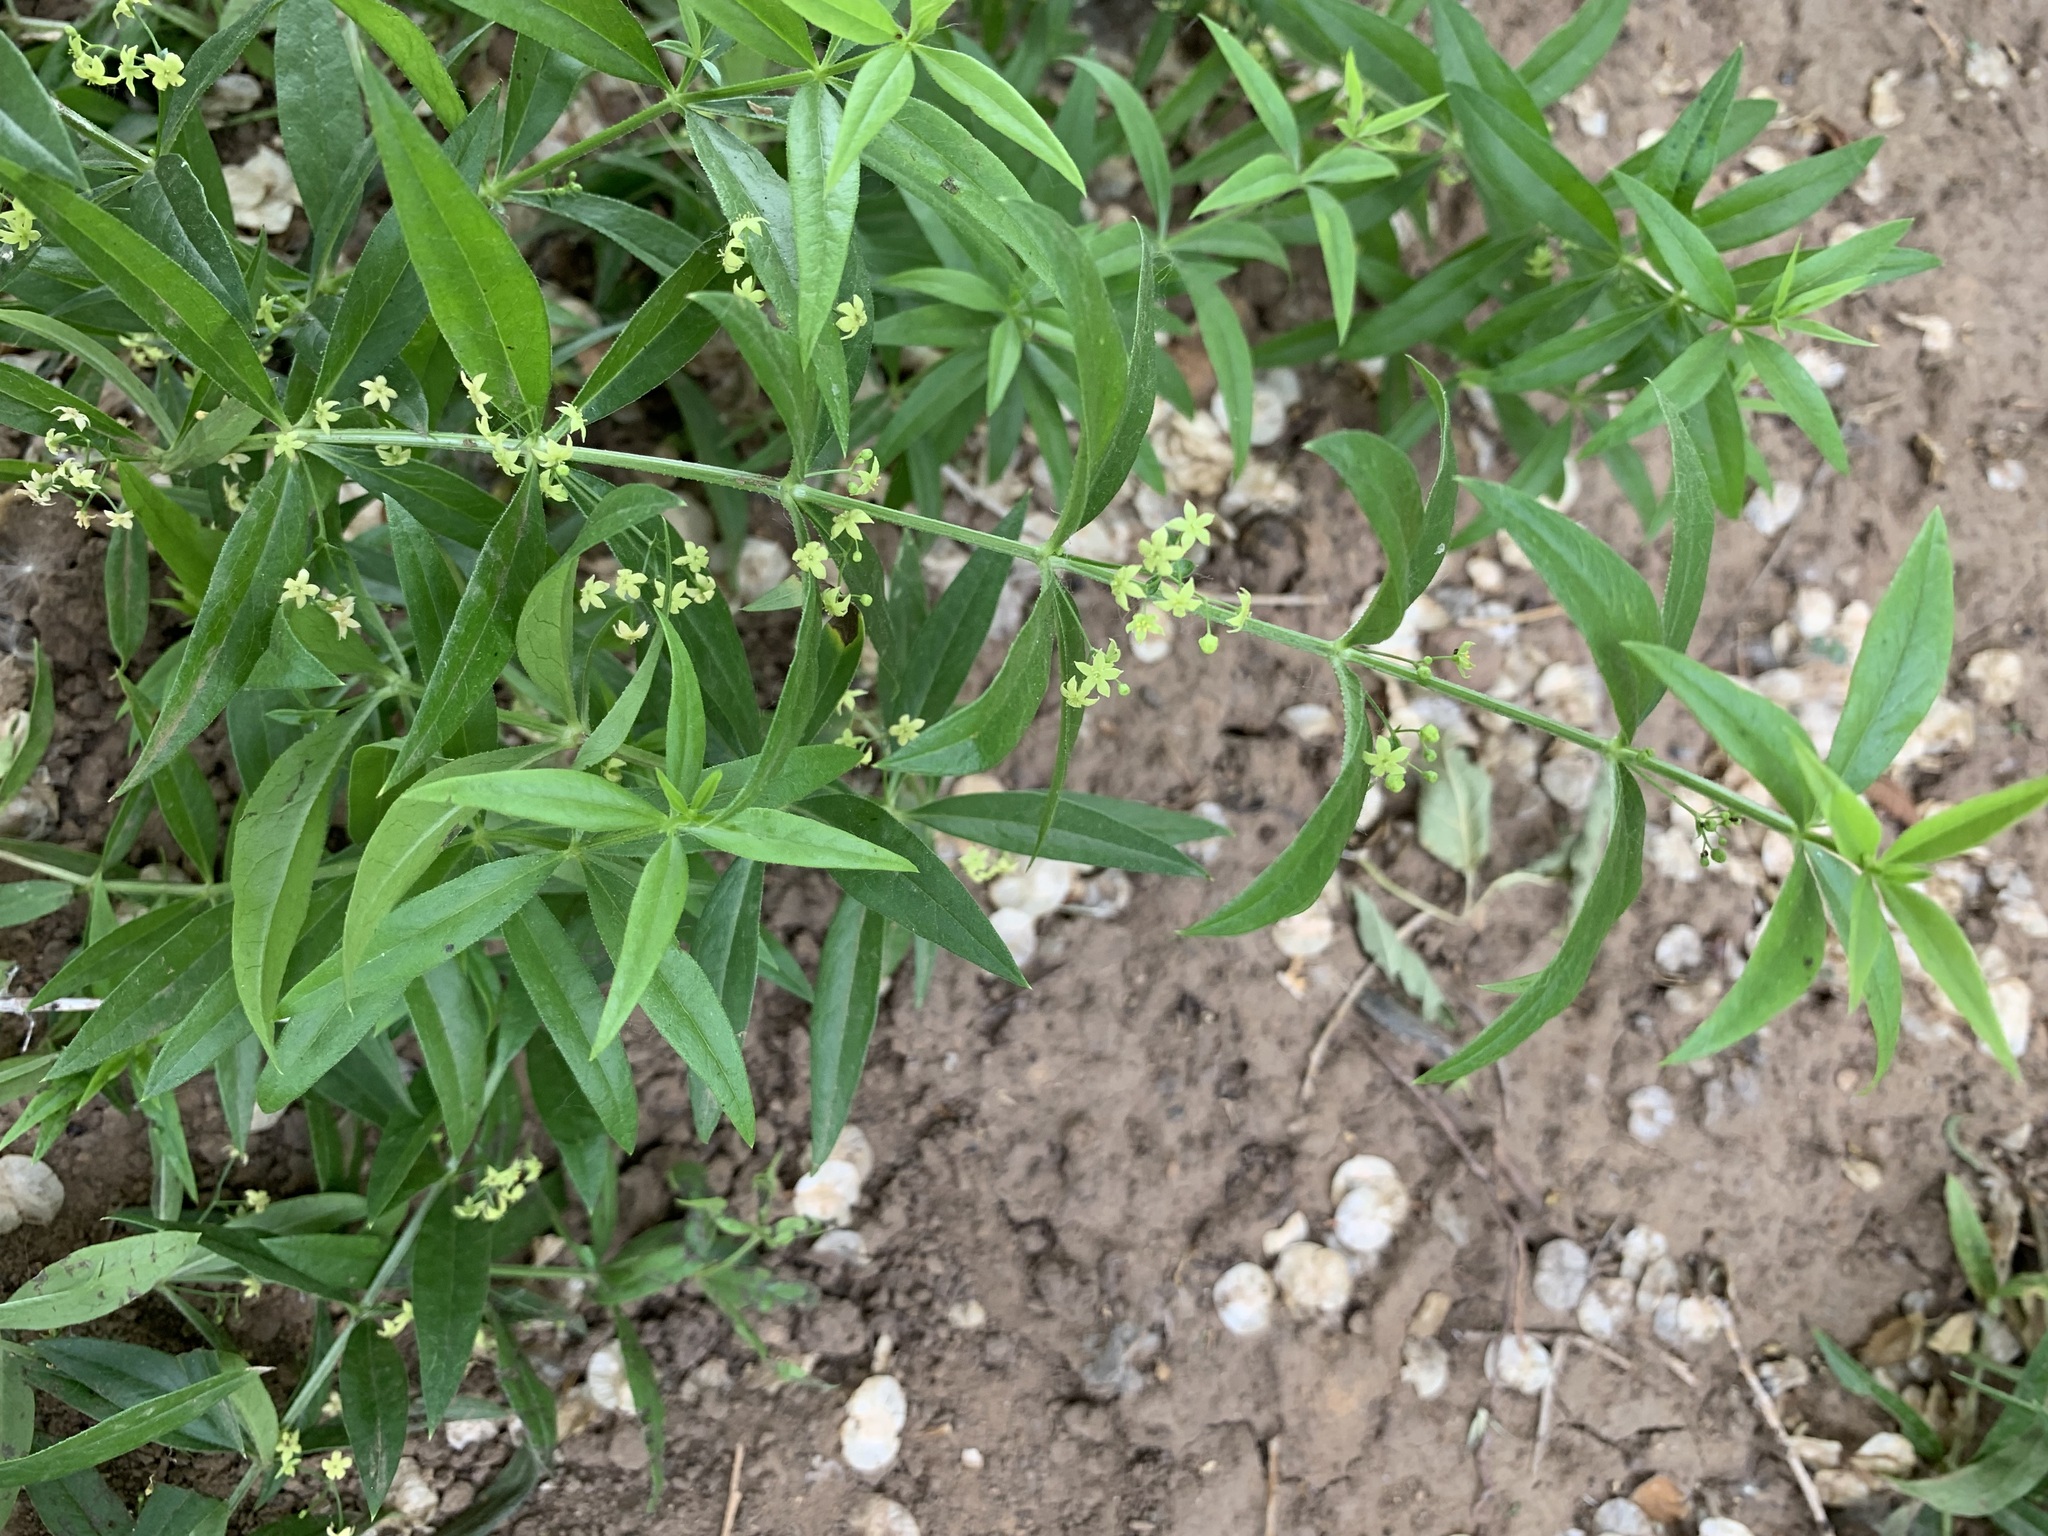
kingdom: Plantae
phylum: Tracheophyta
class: Magnoliopsida
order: Gentianales
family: Rubiaceae
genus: Rubia
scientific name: Rubia tatarica
